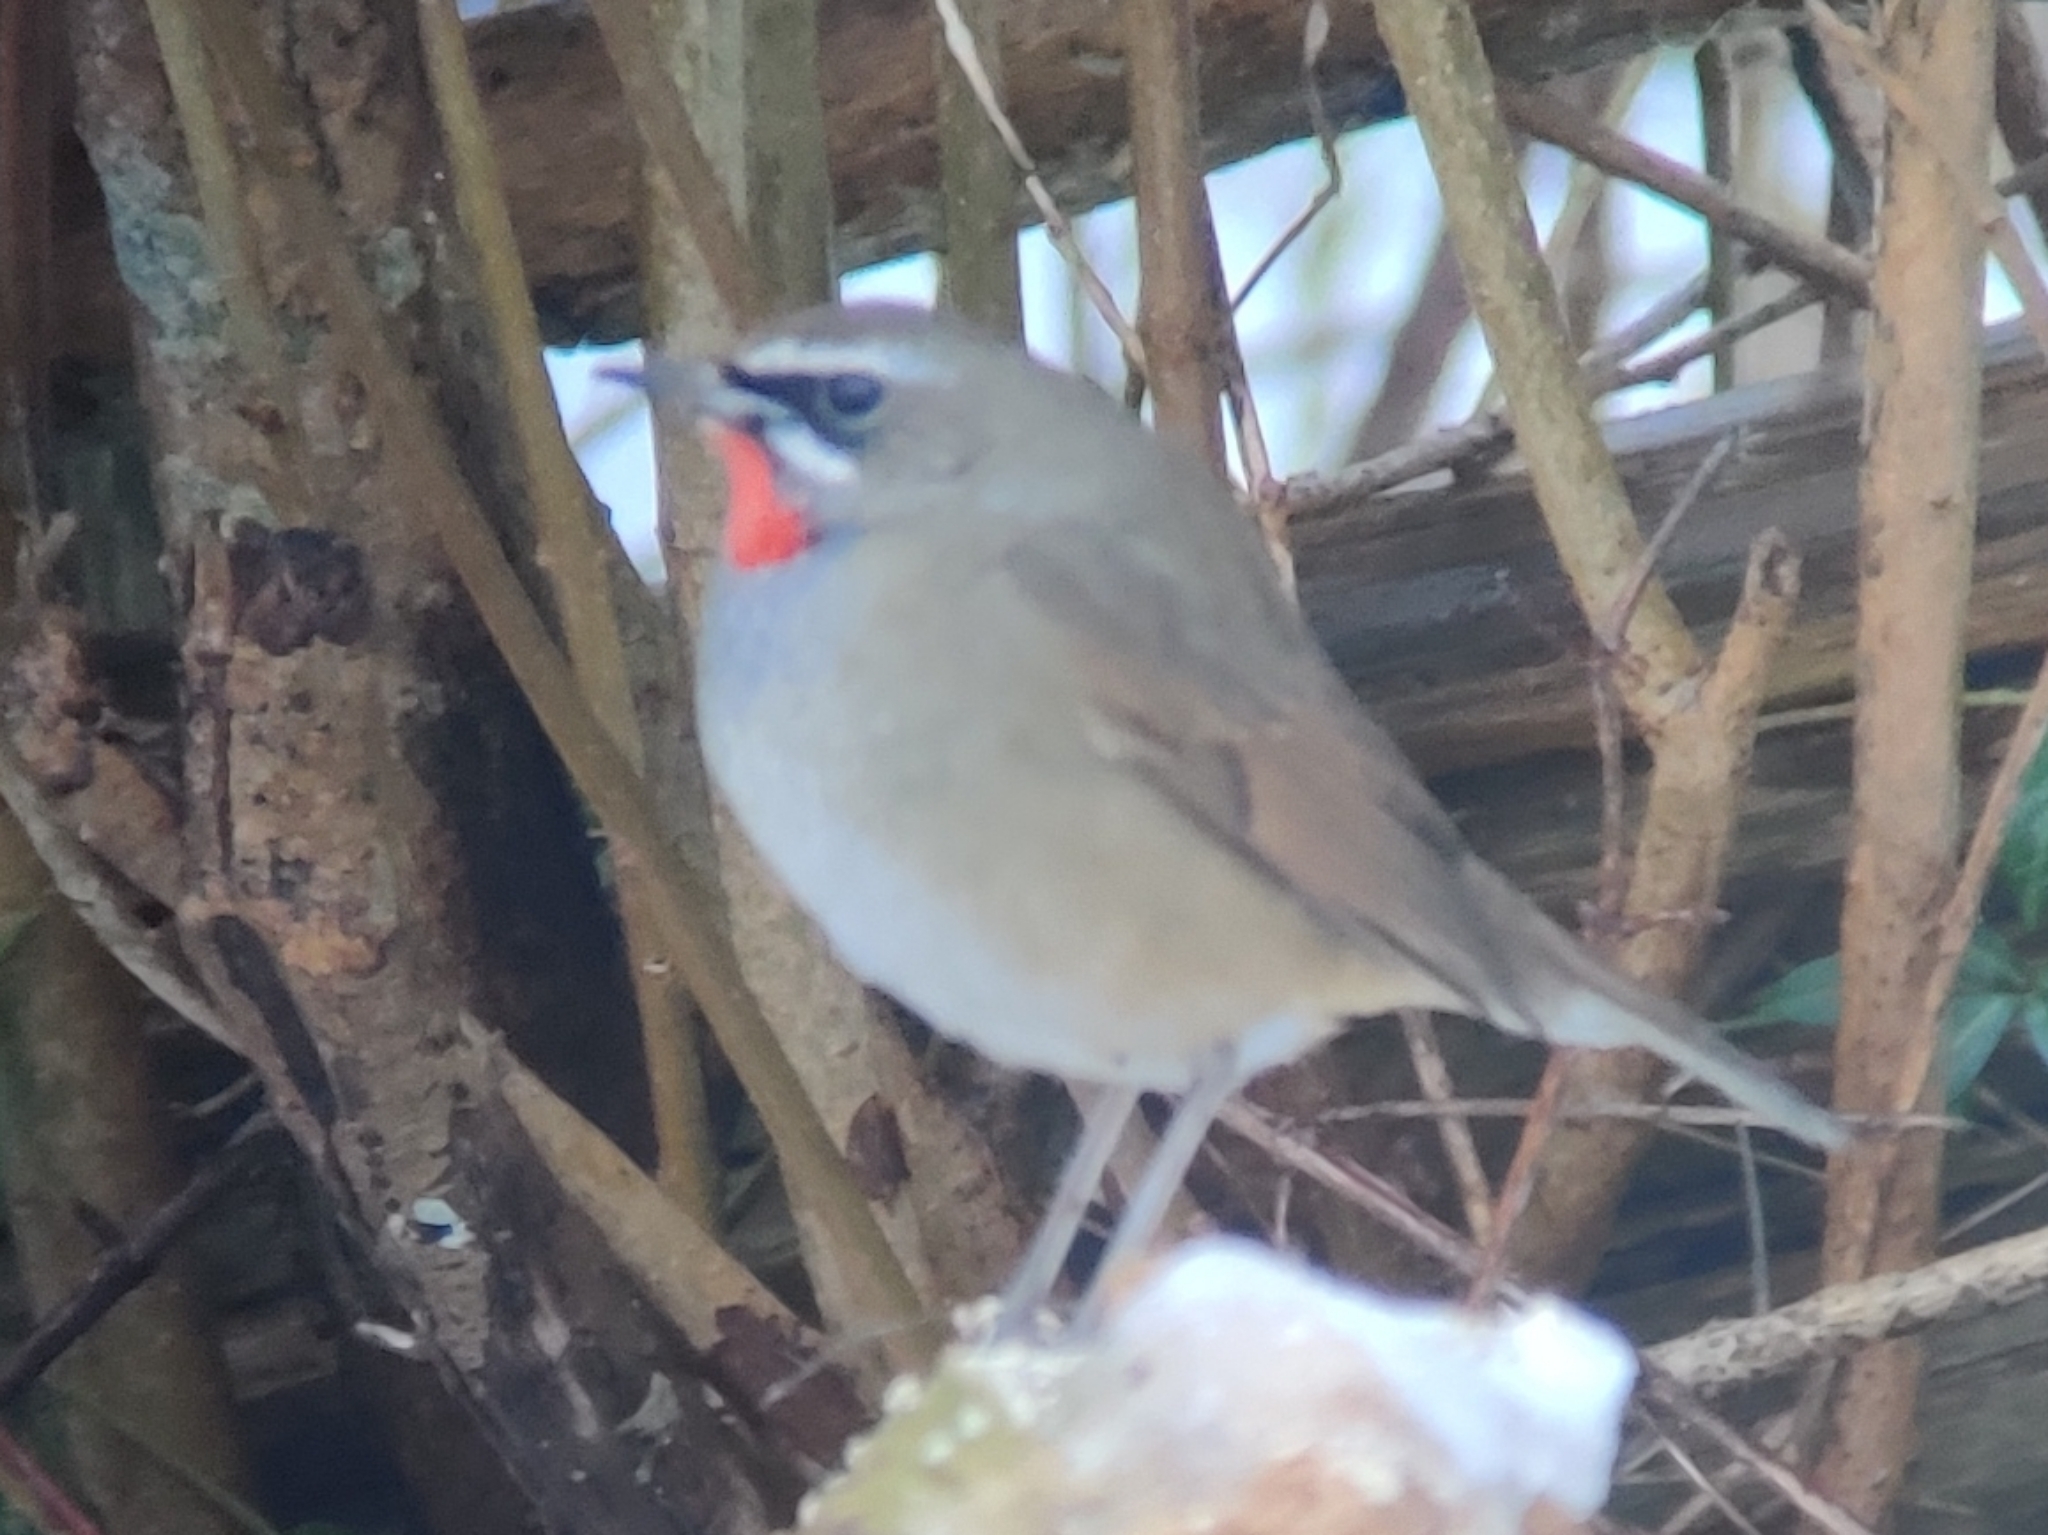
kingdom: Animalia
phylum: Chordata
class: Aves
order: Passeriformes
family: Muscicapidae
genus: Luscinia
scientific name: Luscinia calliope
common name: Siberian rubythroat
